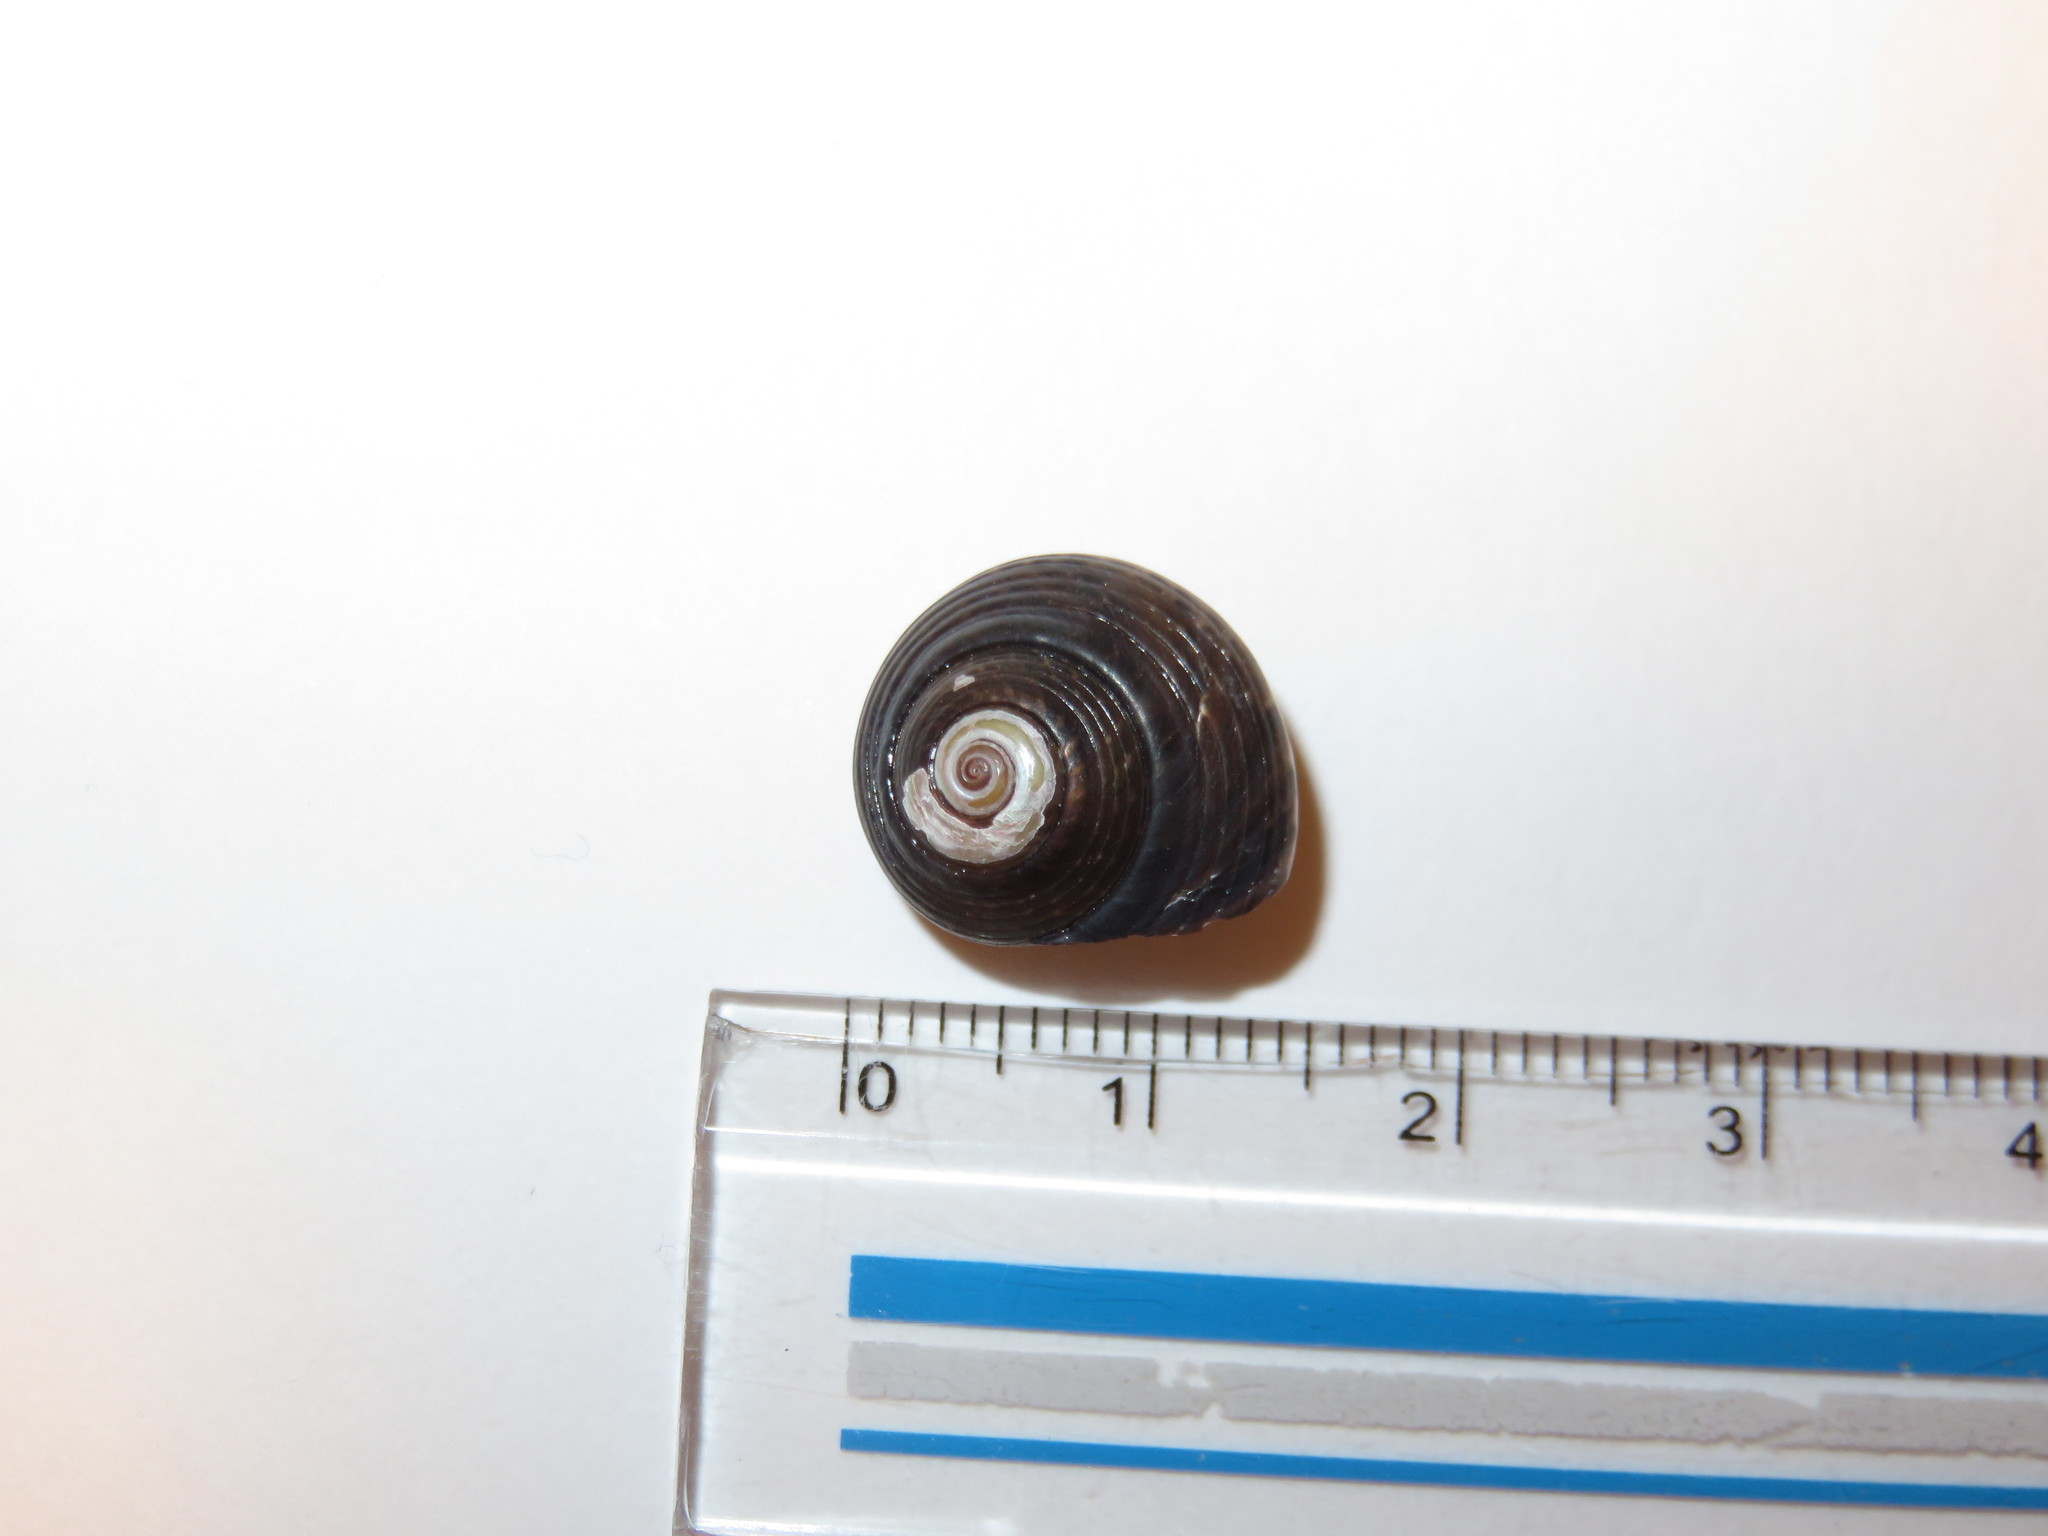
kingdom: Animalia
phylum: Mollusca
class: Gastropoda
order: Trochida
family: Trochidae
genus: Umbonium
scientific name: Umbonium costatum
